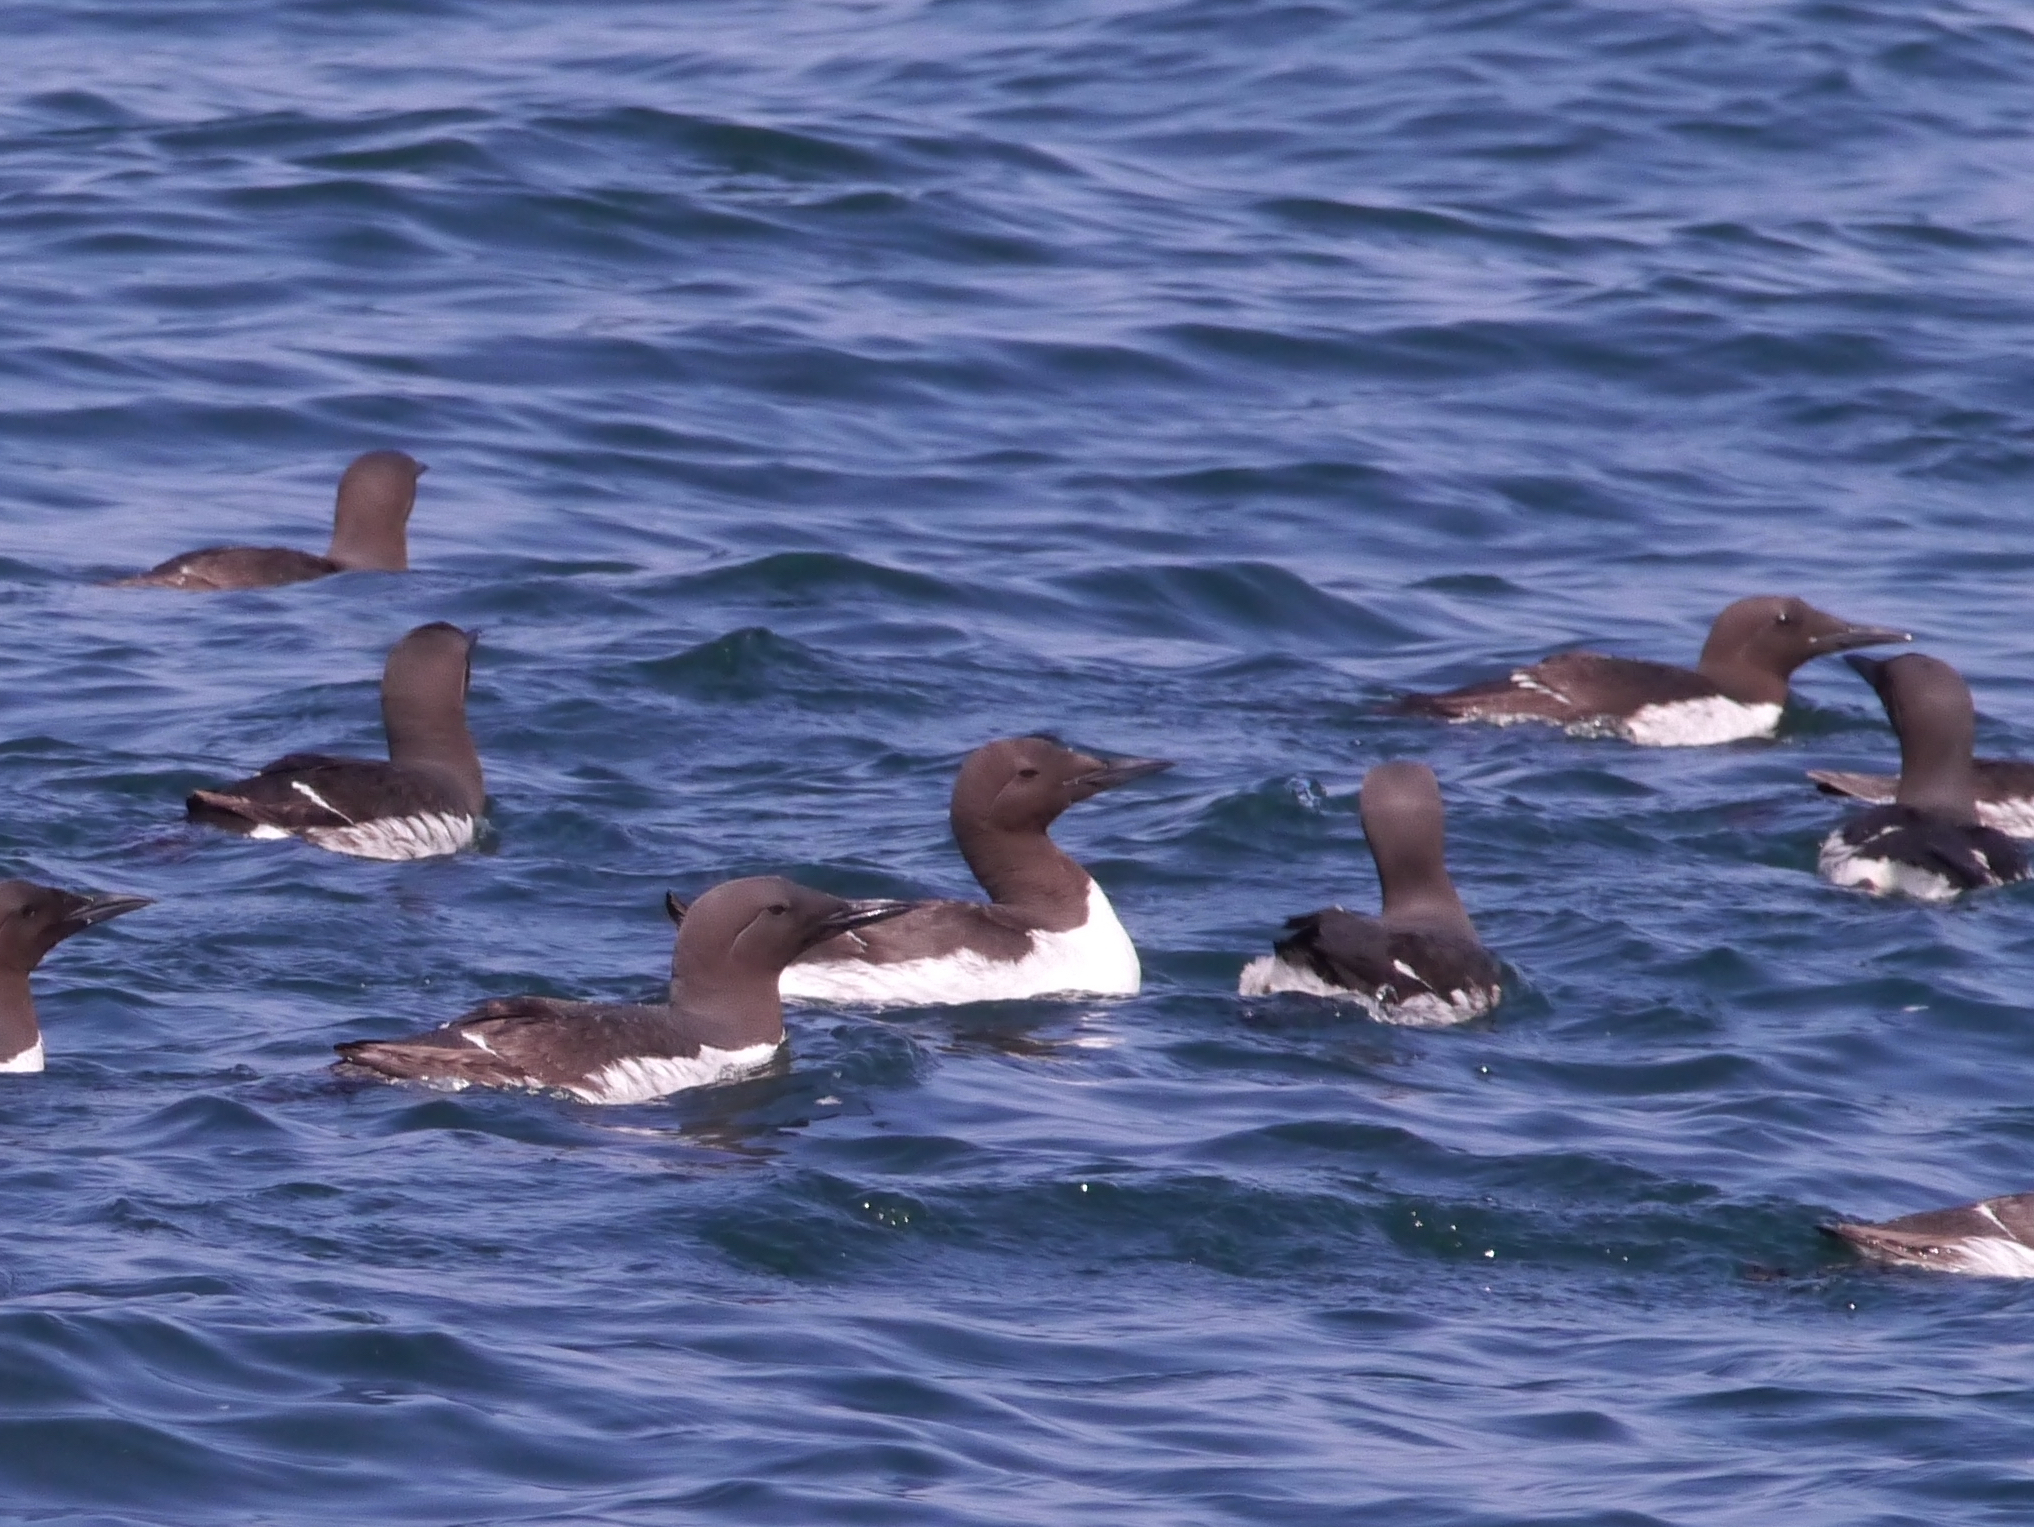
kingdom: Animalia
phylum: Chordata
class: Aves
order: Charadriiformes
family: Alcidae
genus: Uria
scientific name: Uria aalge
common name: Common murre
